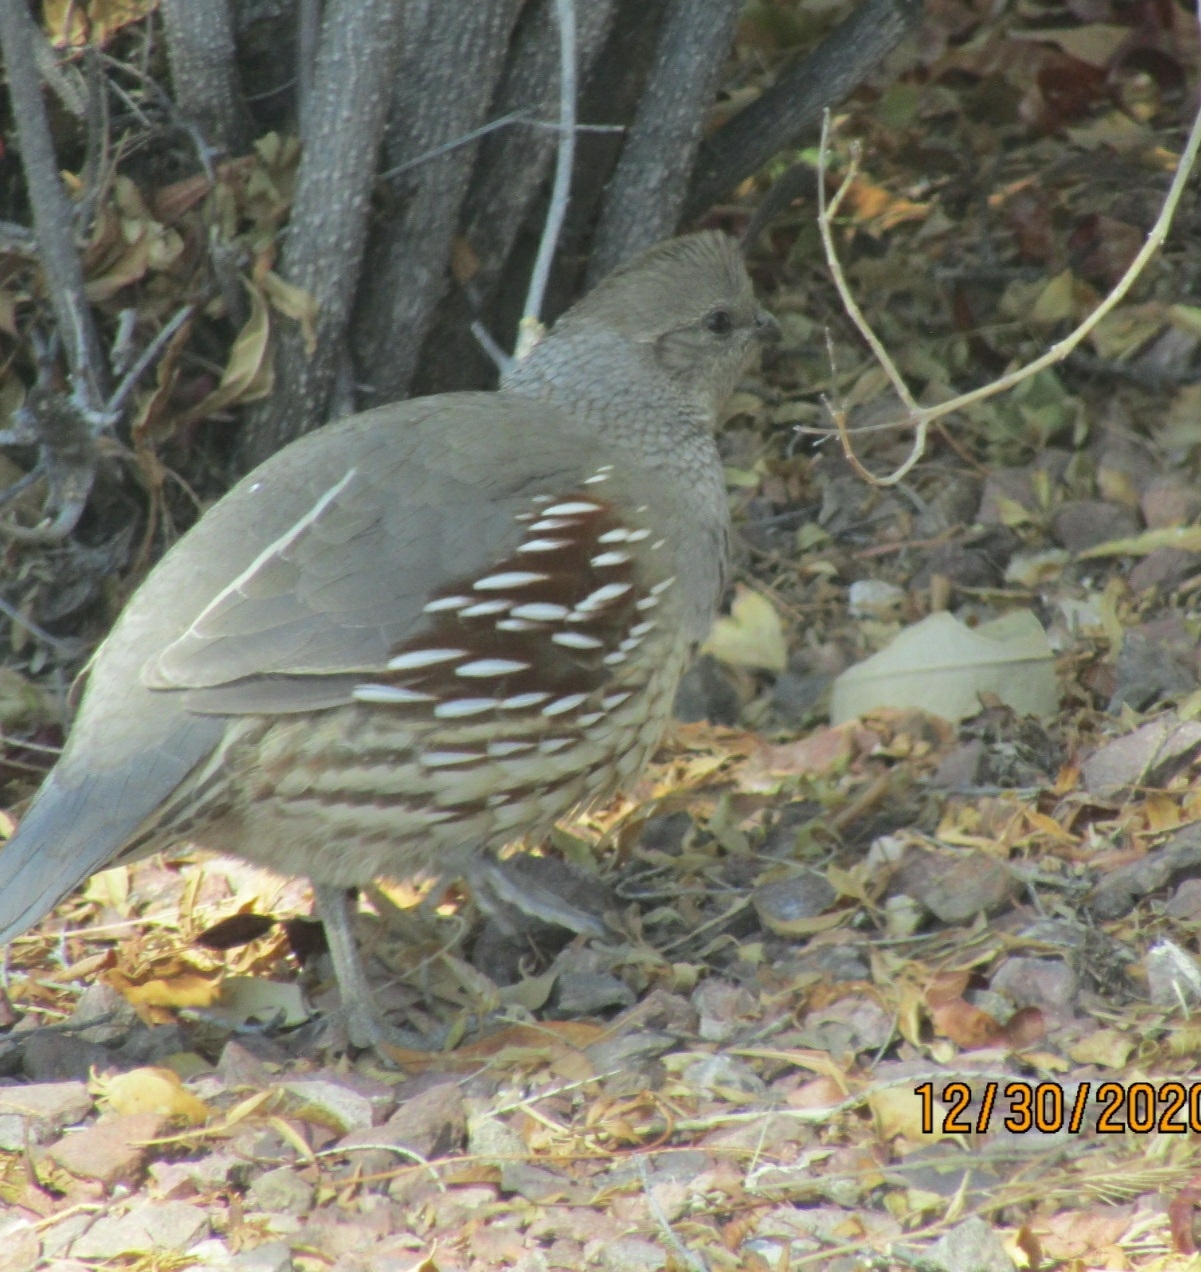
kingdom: Animalia
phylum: Chordata
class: Aves
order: Galliformes
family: Odontophoridae
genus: Callipepla
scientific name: Callipepla gambelii
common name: Gambel's quail
